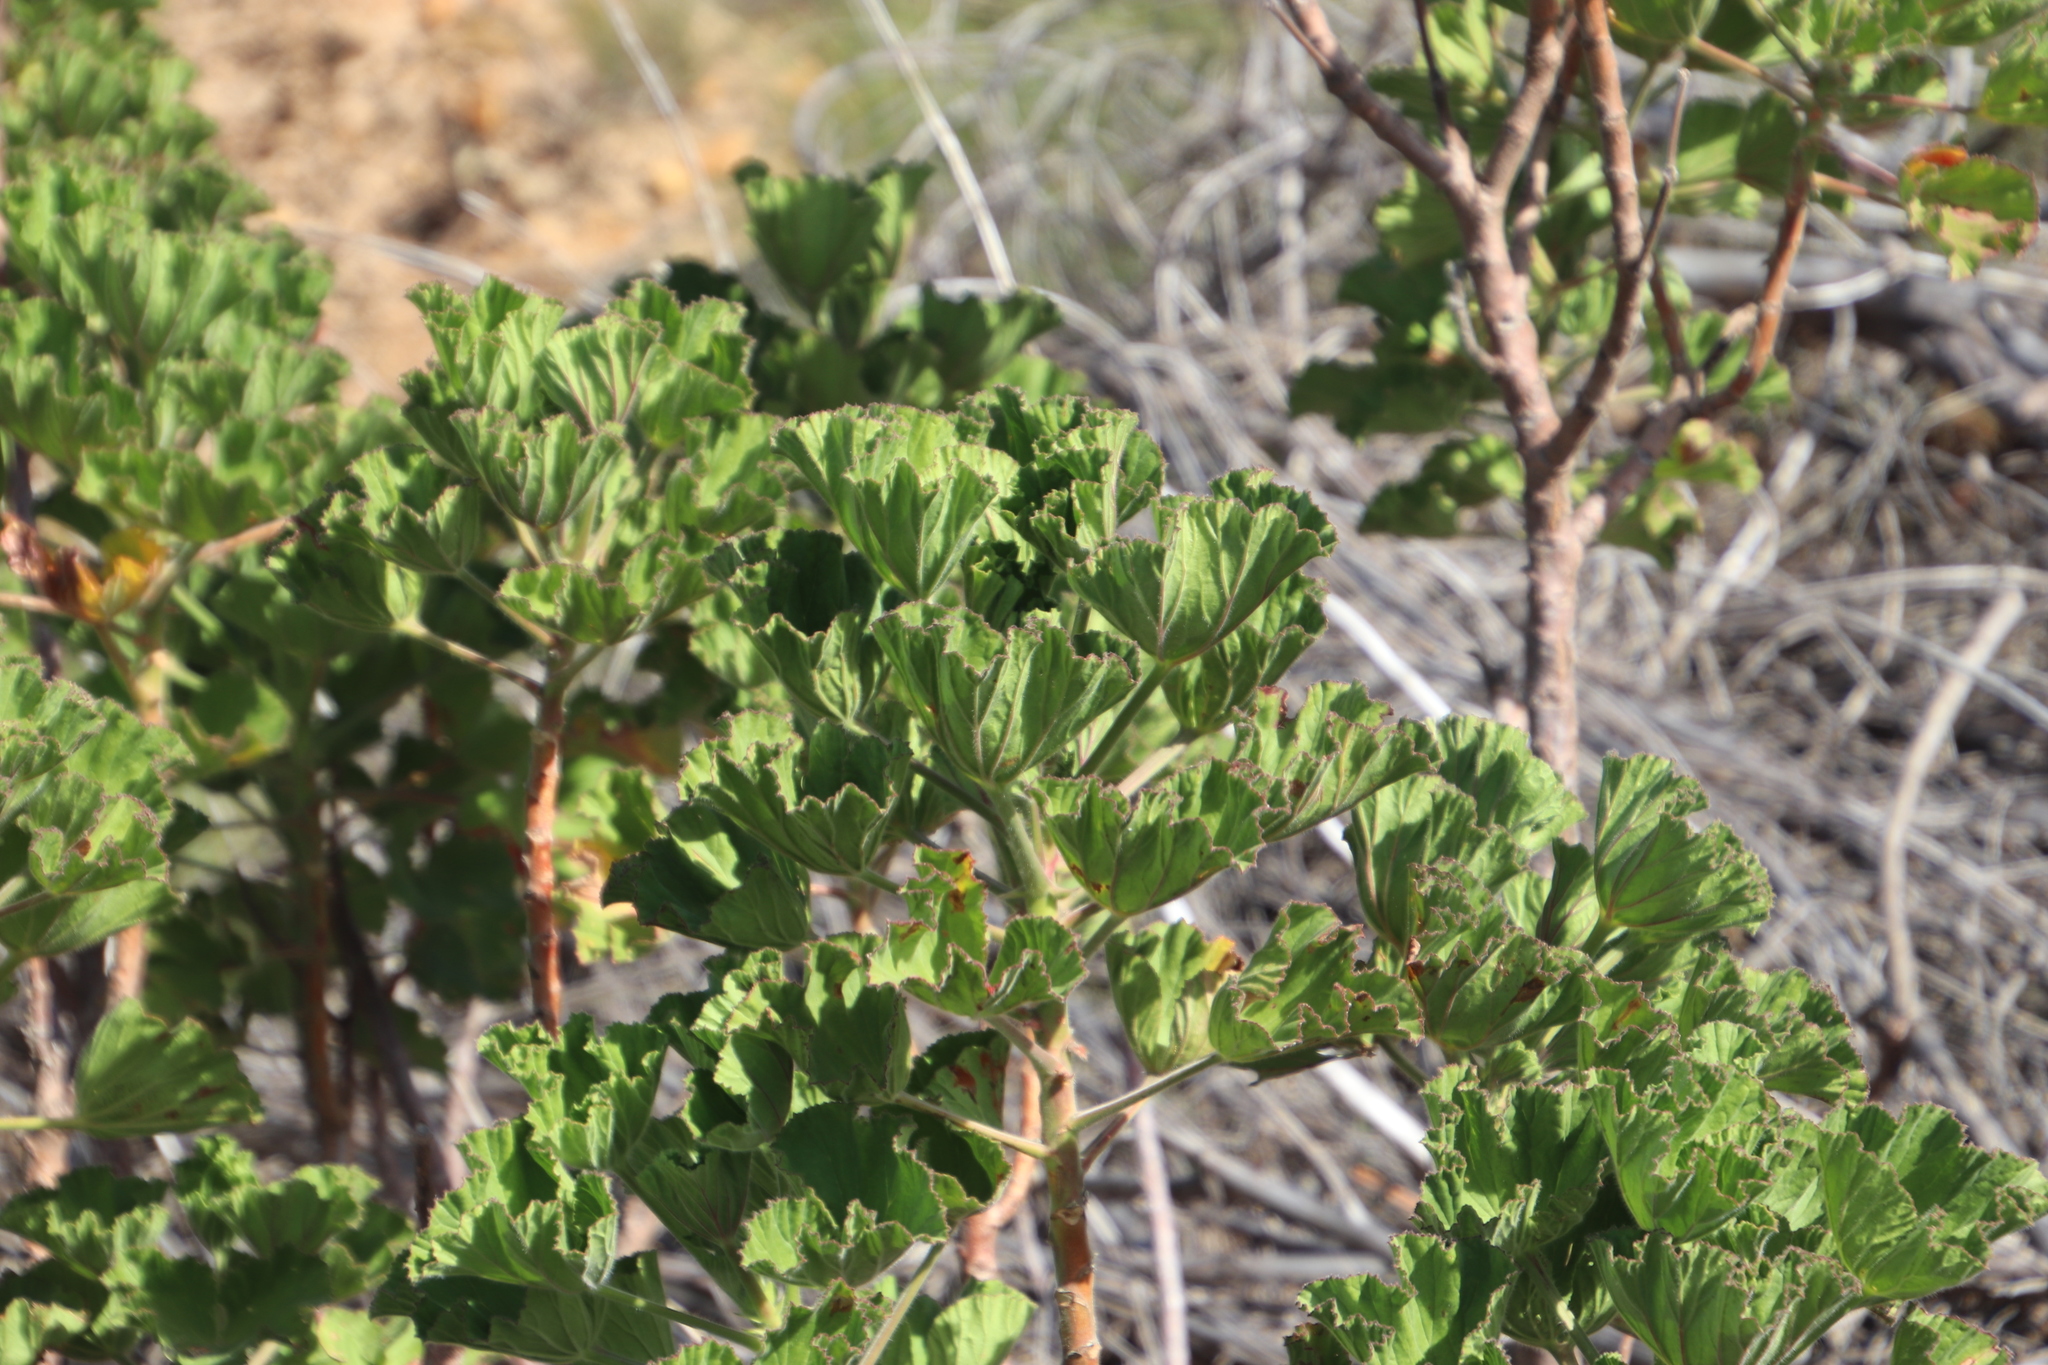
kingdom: Plantae
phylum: Tracheophyta
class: Magnoliopsida
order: Geraniales
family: Geraniaceae
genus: Pelargonium
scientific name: Pelargonium cucullatum
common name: Tree pelargonium
